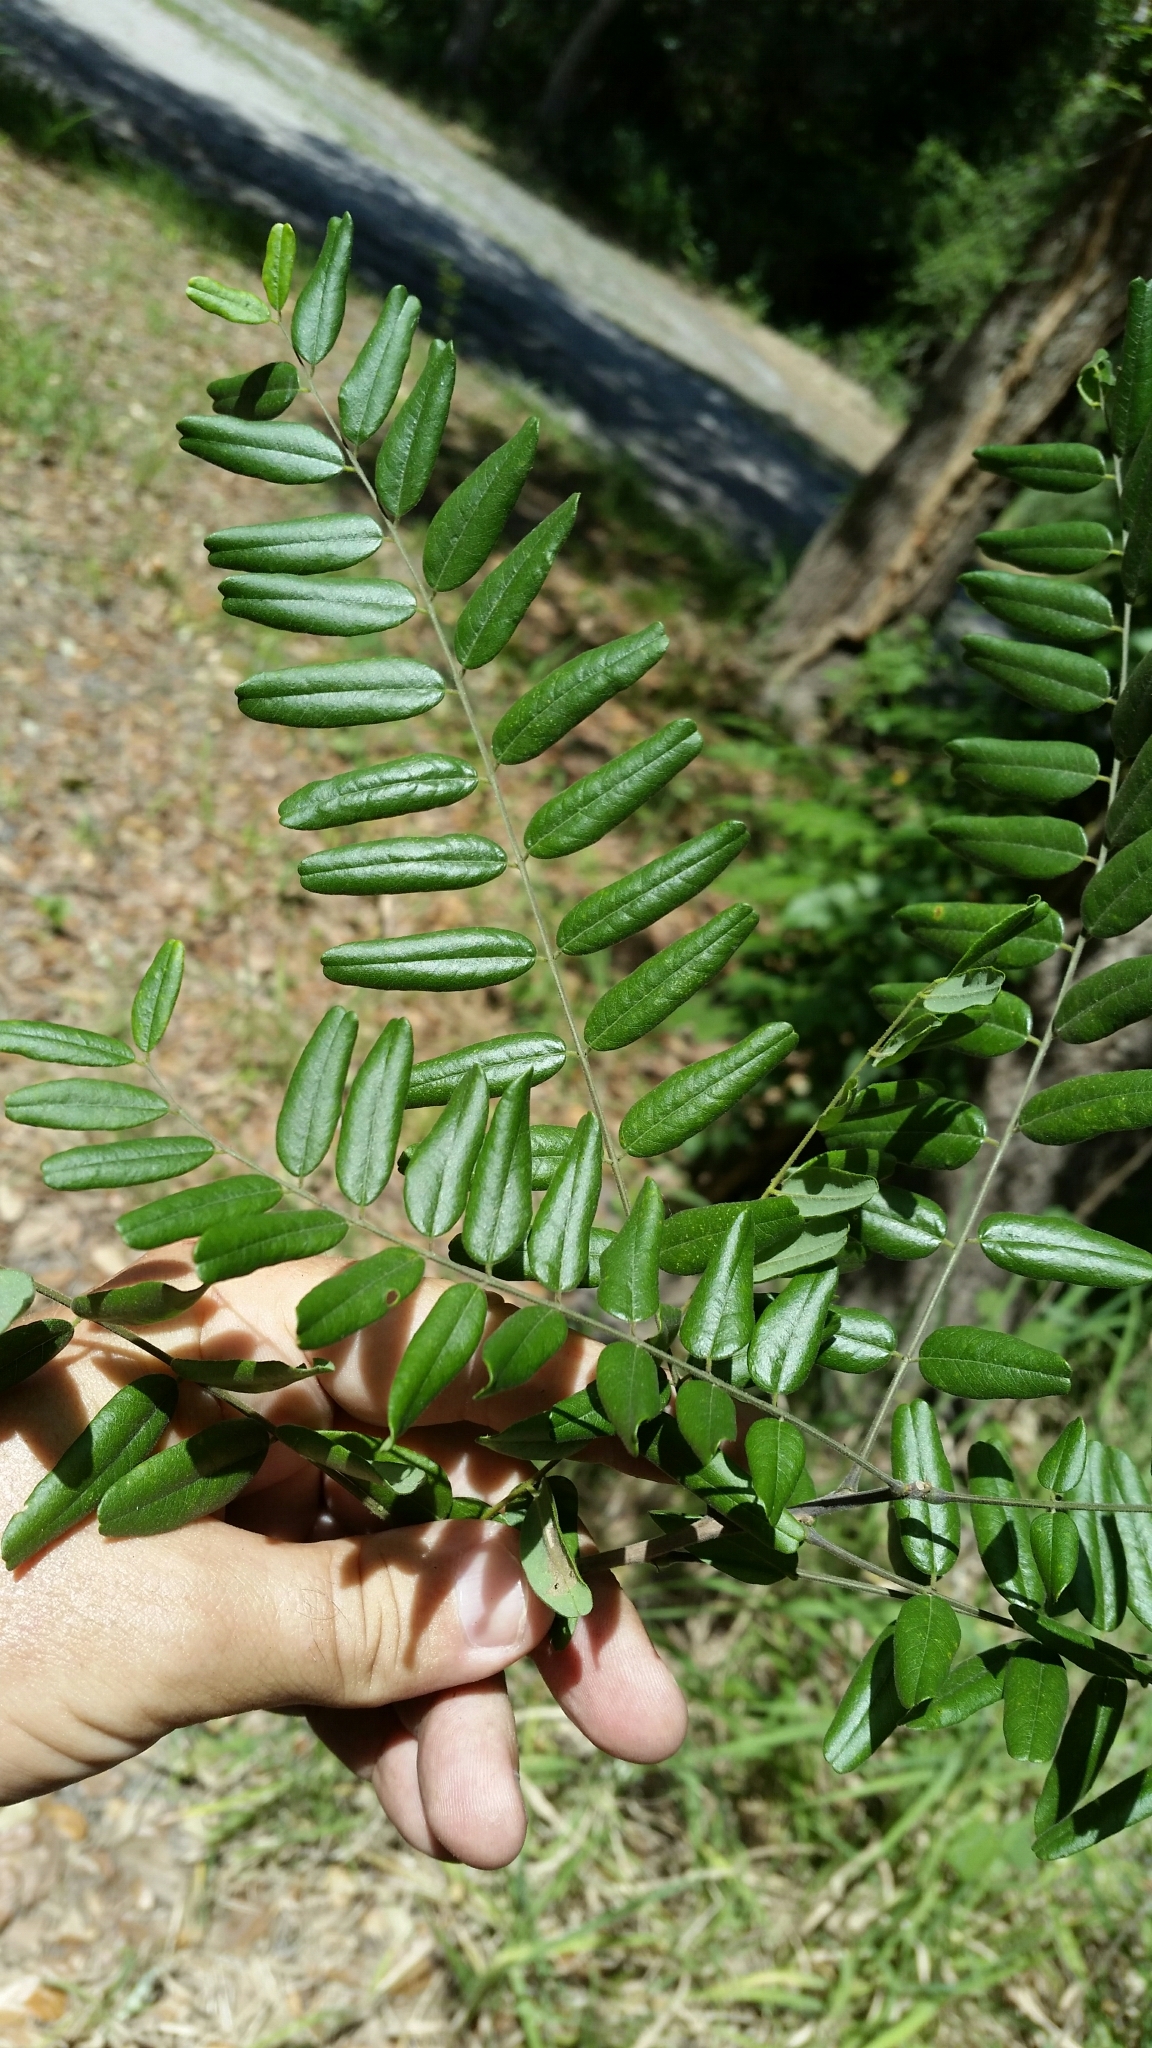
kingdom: Plantae
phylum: Tracheophyta
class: Magnoliopsida
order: Fabales
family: Fabaceae
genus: Amorpha
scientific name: Amorpha fruticosa
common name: False indigo
